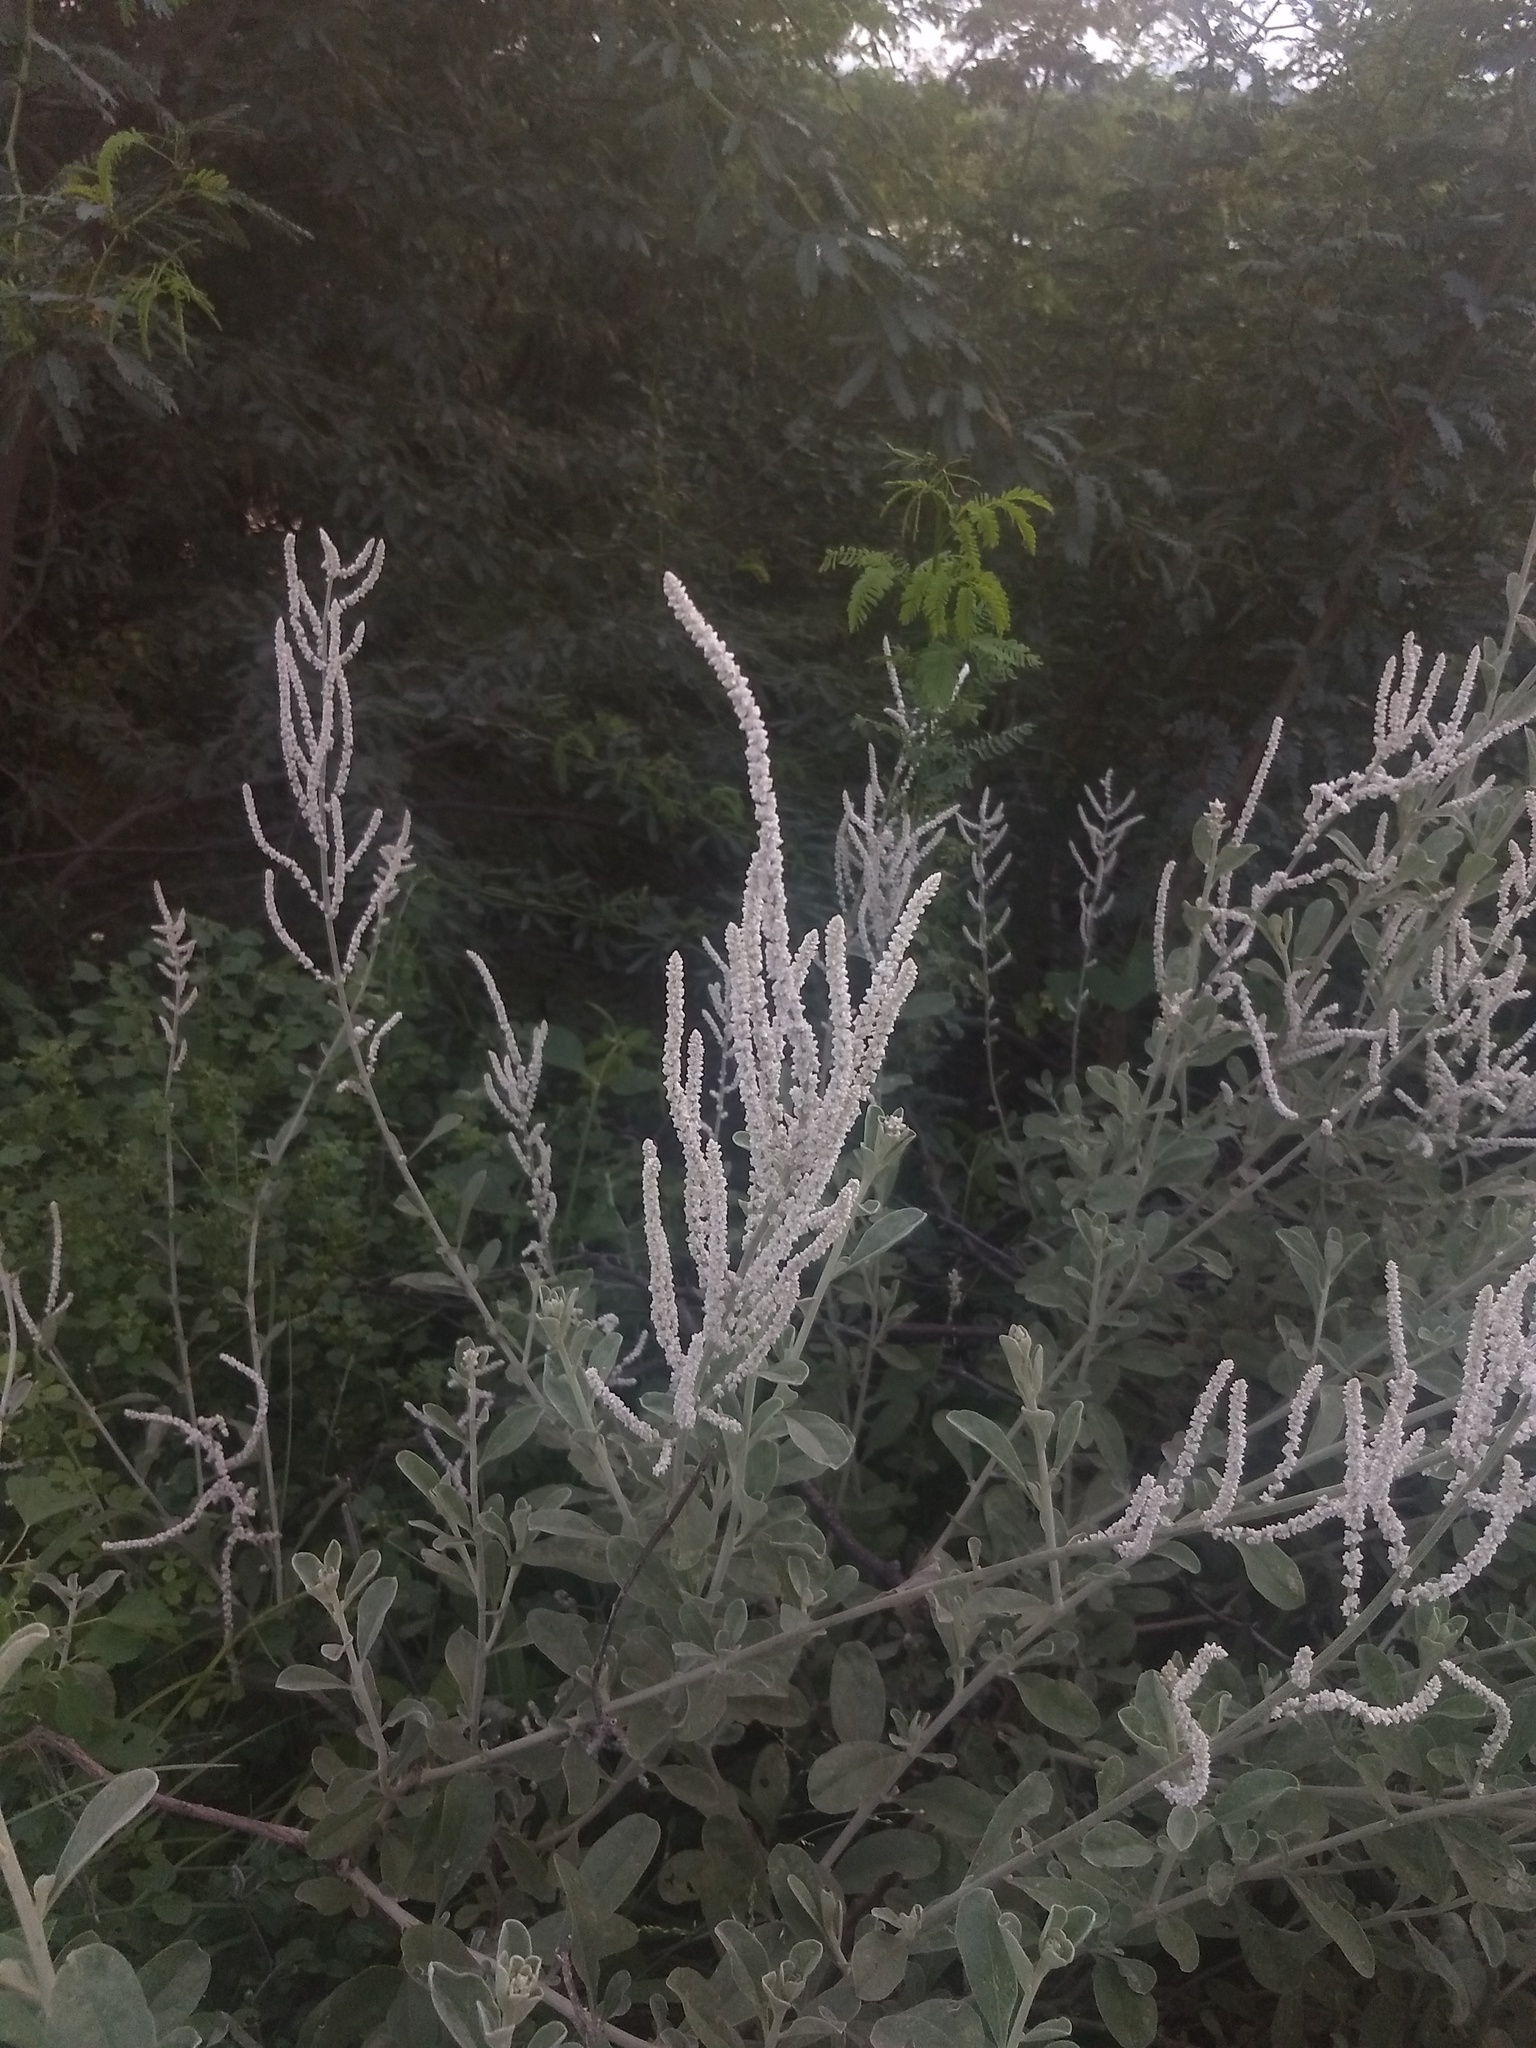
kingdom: Plantae
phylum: Tracheophyta
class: Magnoliopsida
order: Caryophyllales
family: Amaranthaceae
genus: Aerva
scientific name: Aerva javanica
